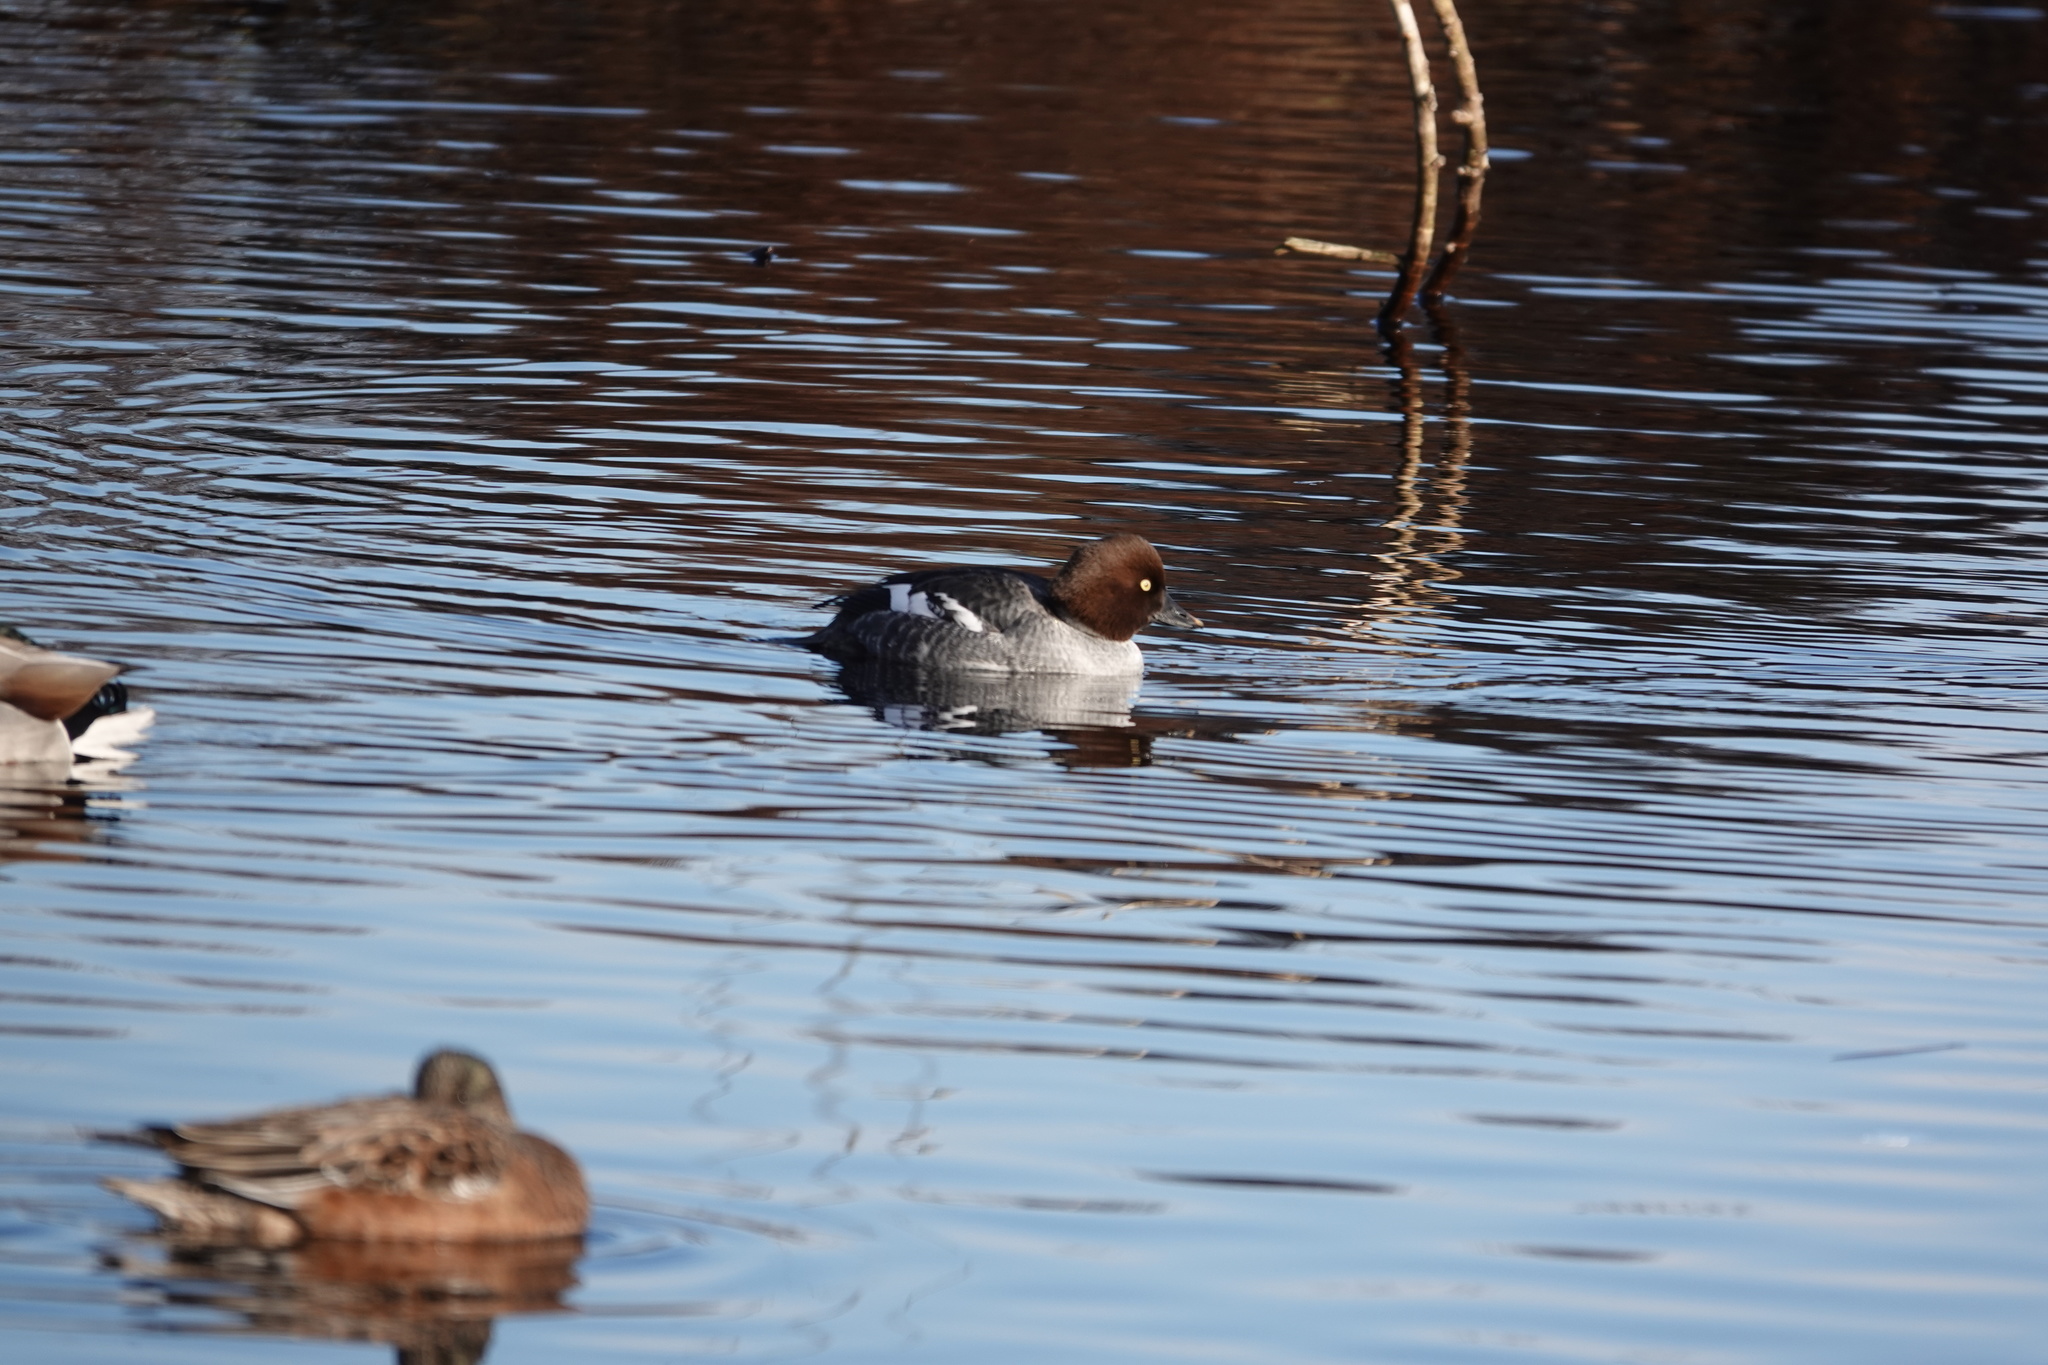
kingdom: Animalia
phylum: Chordata
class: Aves
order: Anseriformes
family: Anatidae
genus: Bucephala
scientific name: Bucephala clangula
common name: Common goldeneye
